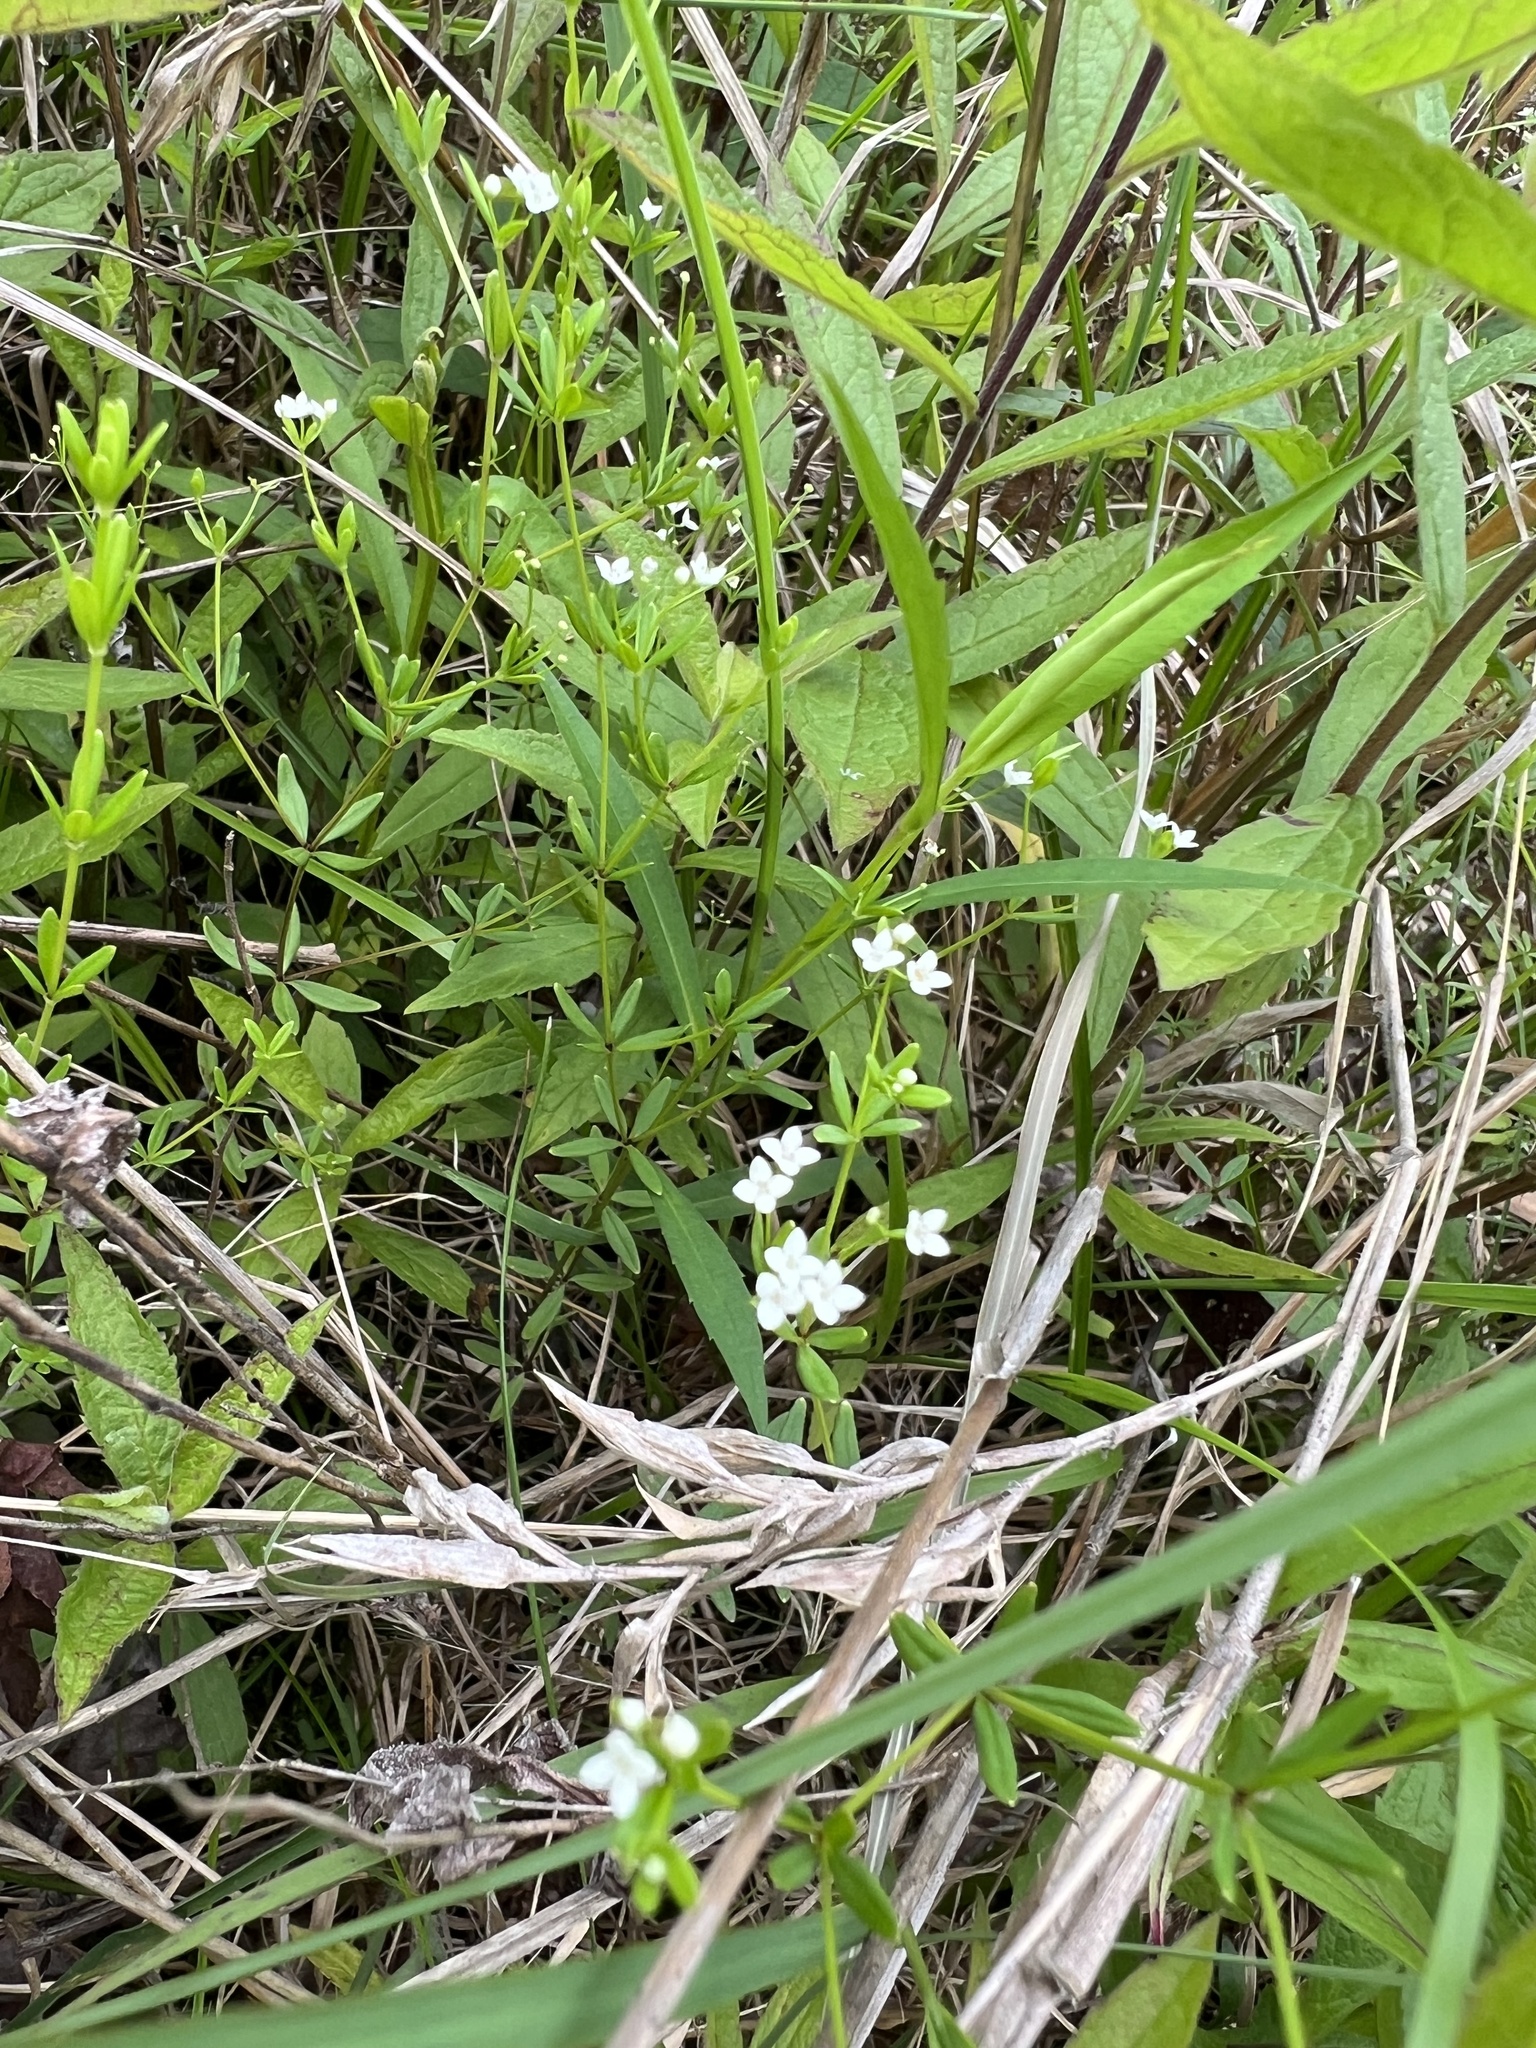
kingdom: Plantae
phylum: Tracheophyta
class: Magnoliopsida
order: Gentianales
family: Rubiaceae
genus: Galium
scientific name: Galium obtusum
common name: Blunt-leaved bedstraw
